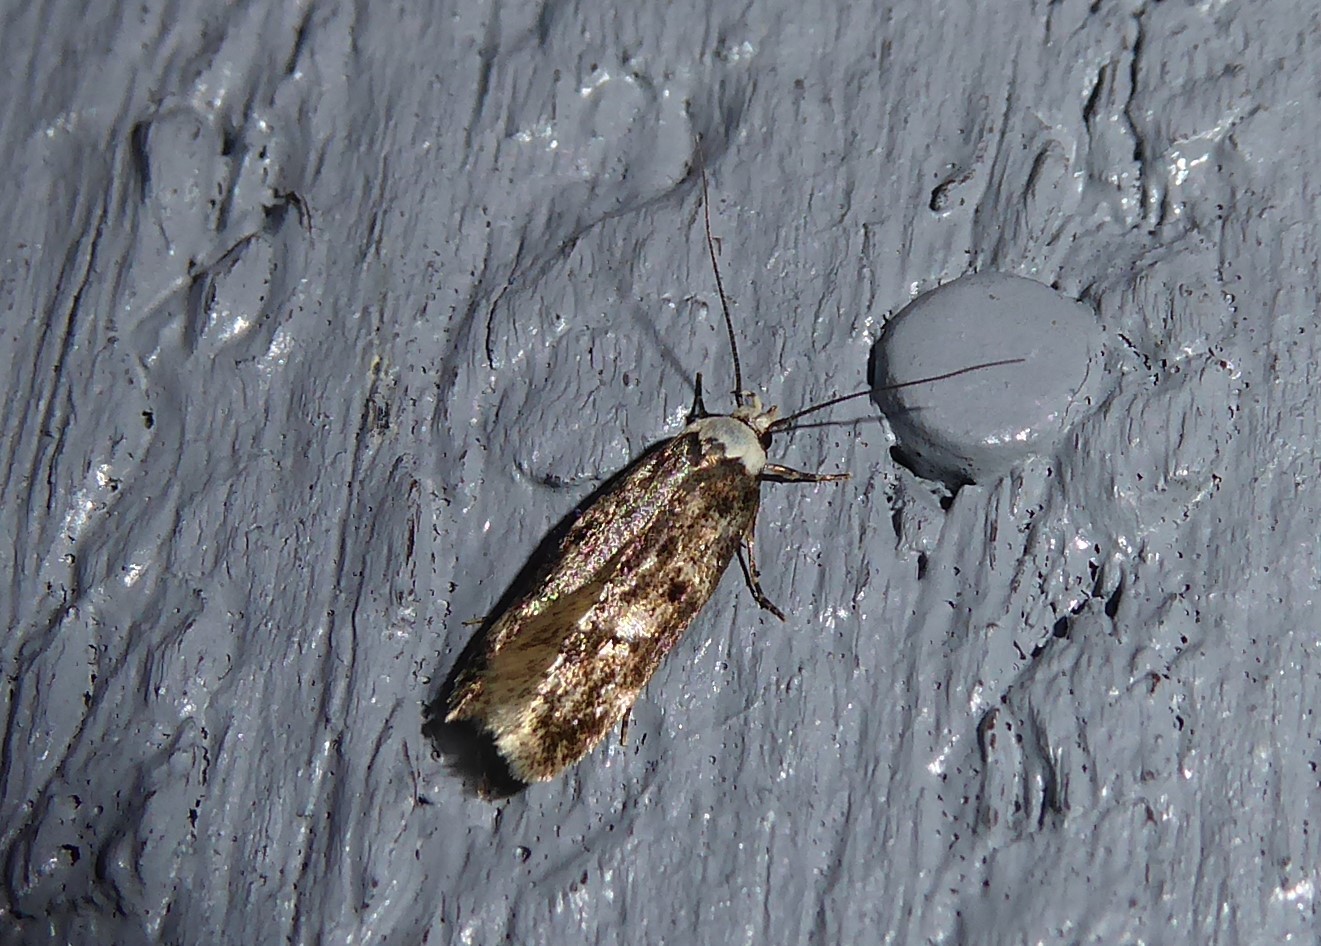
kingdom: Animalia
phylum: Arthropoda
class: Insecta
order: Lepidoptera
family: Oecophoridae
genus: Endrosis
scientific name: Endrosis sarcitrella
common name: White-shouldered house moth
